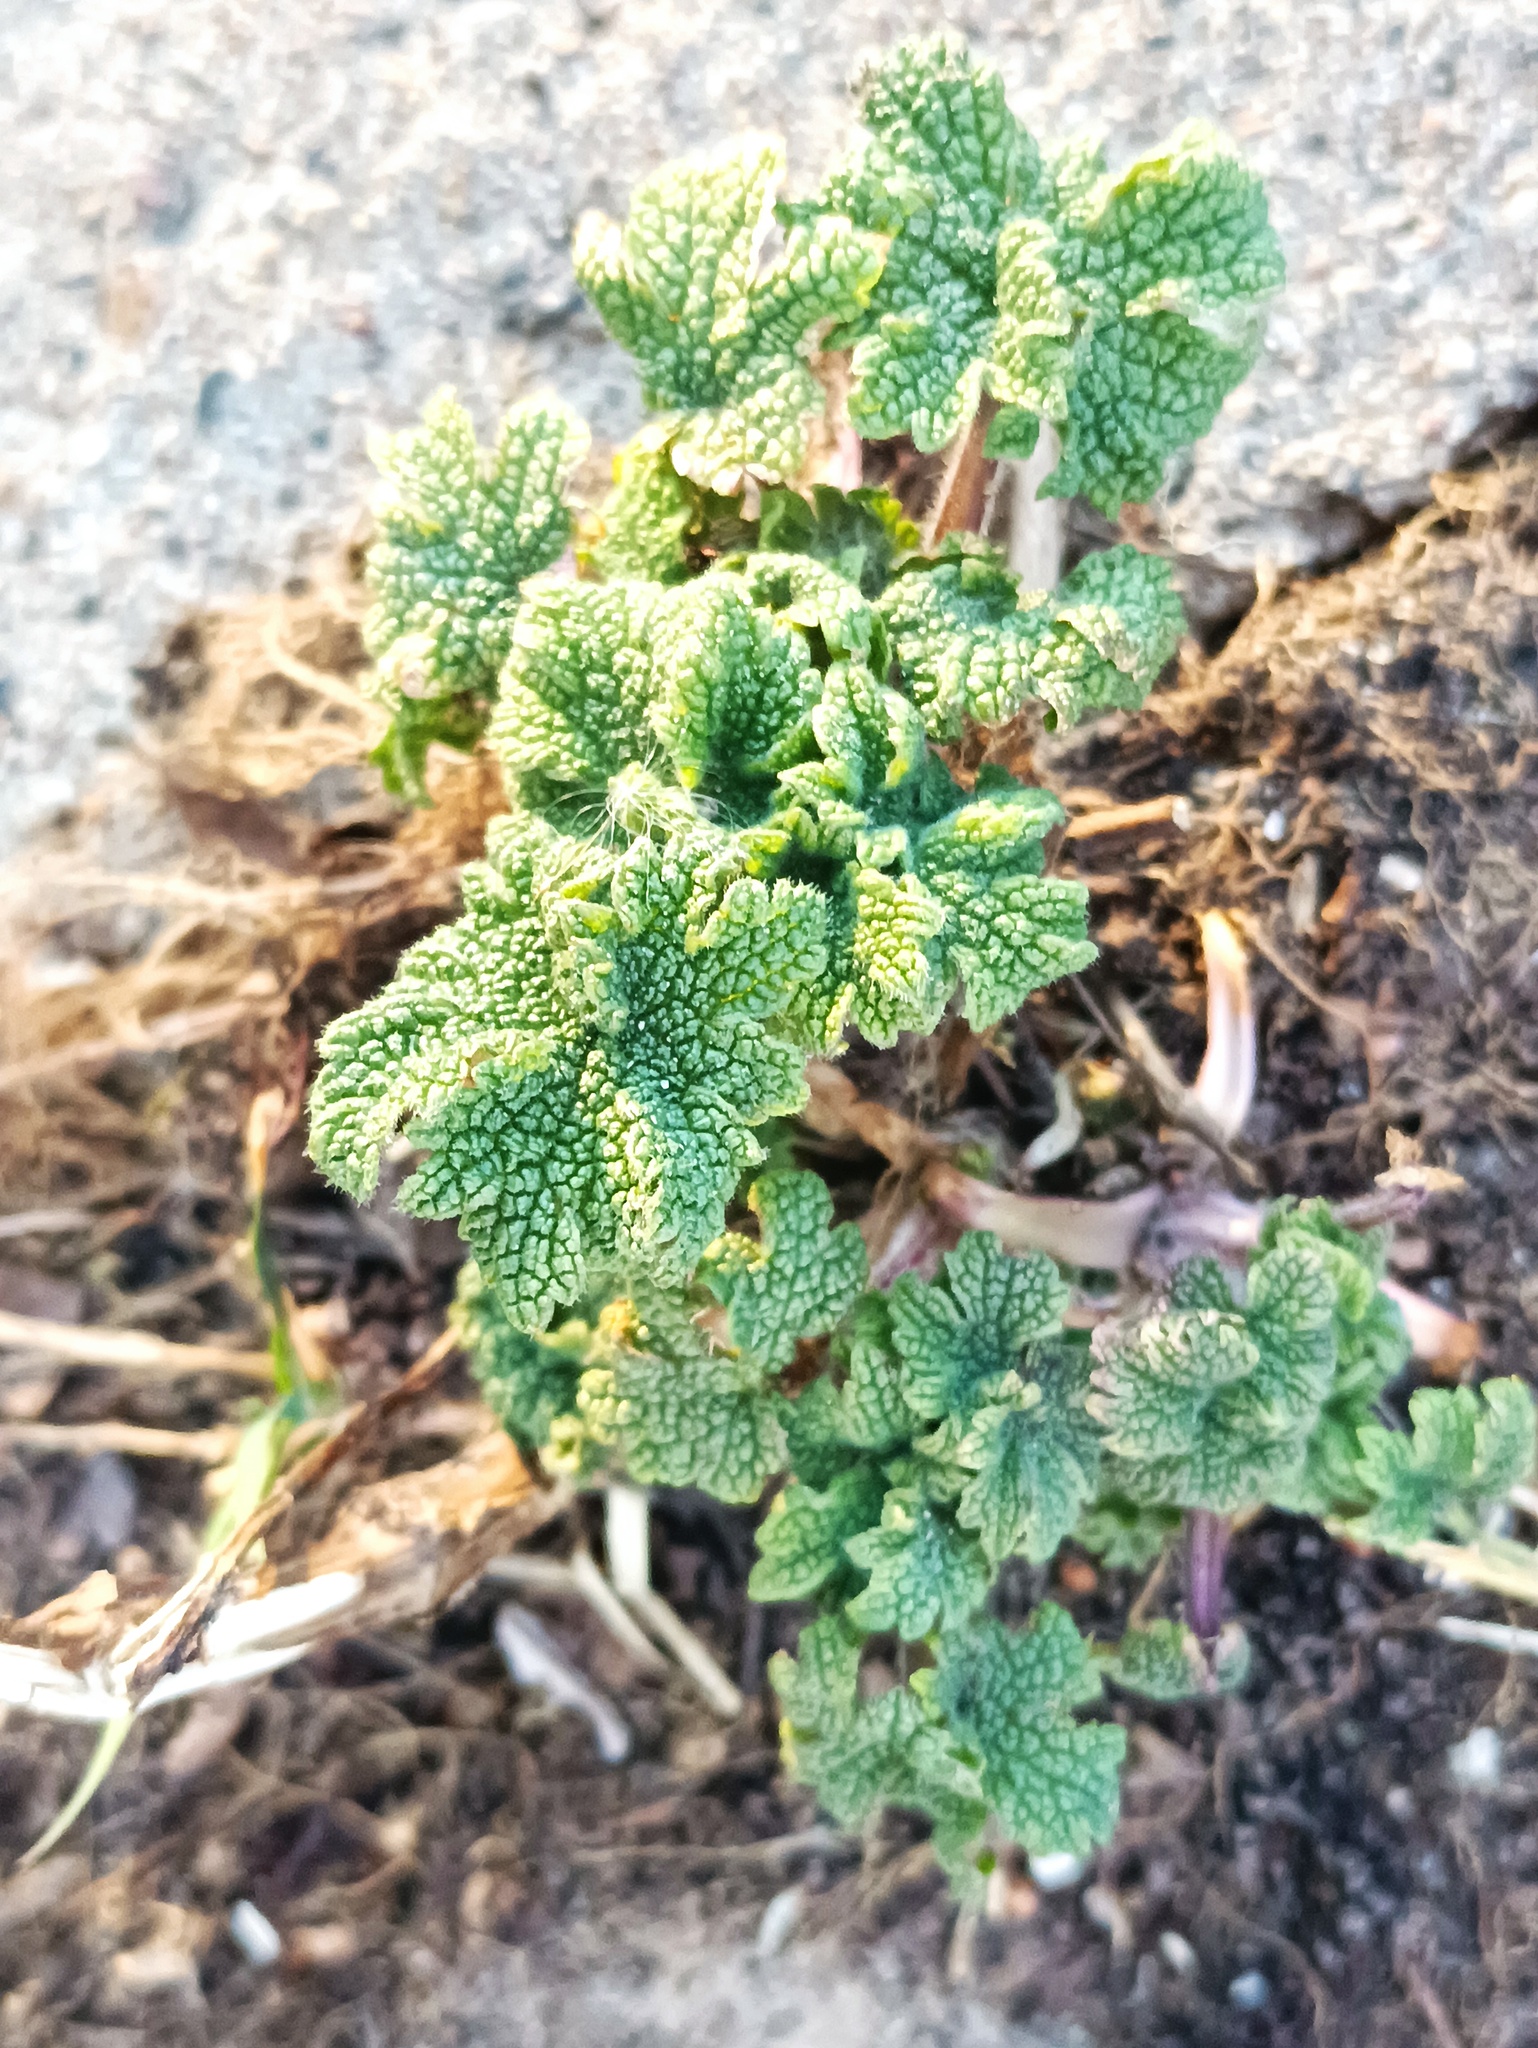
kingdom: Plantae
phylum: Tracheophyta
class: Magnoliopsida
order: Lamiales
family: Lamiaceae
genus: Leonurus
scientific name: Leonurus quinquelobatus
